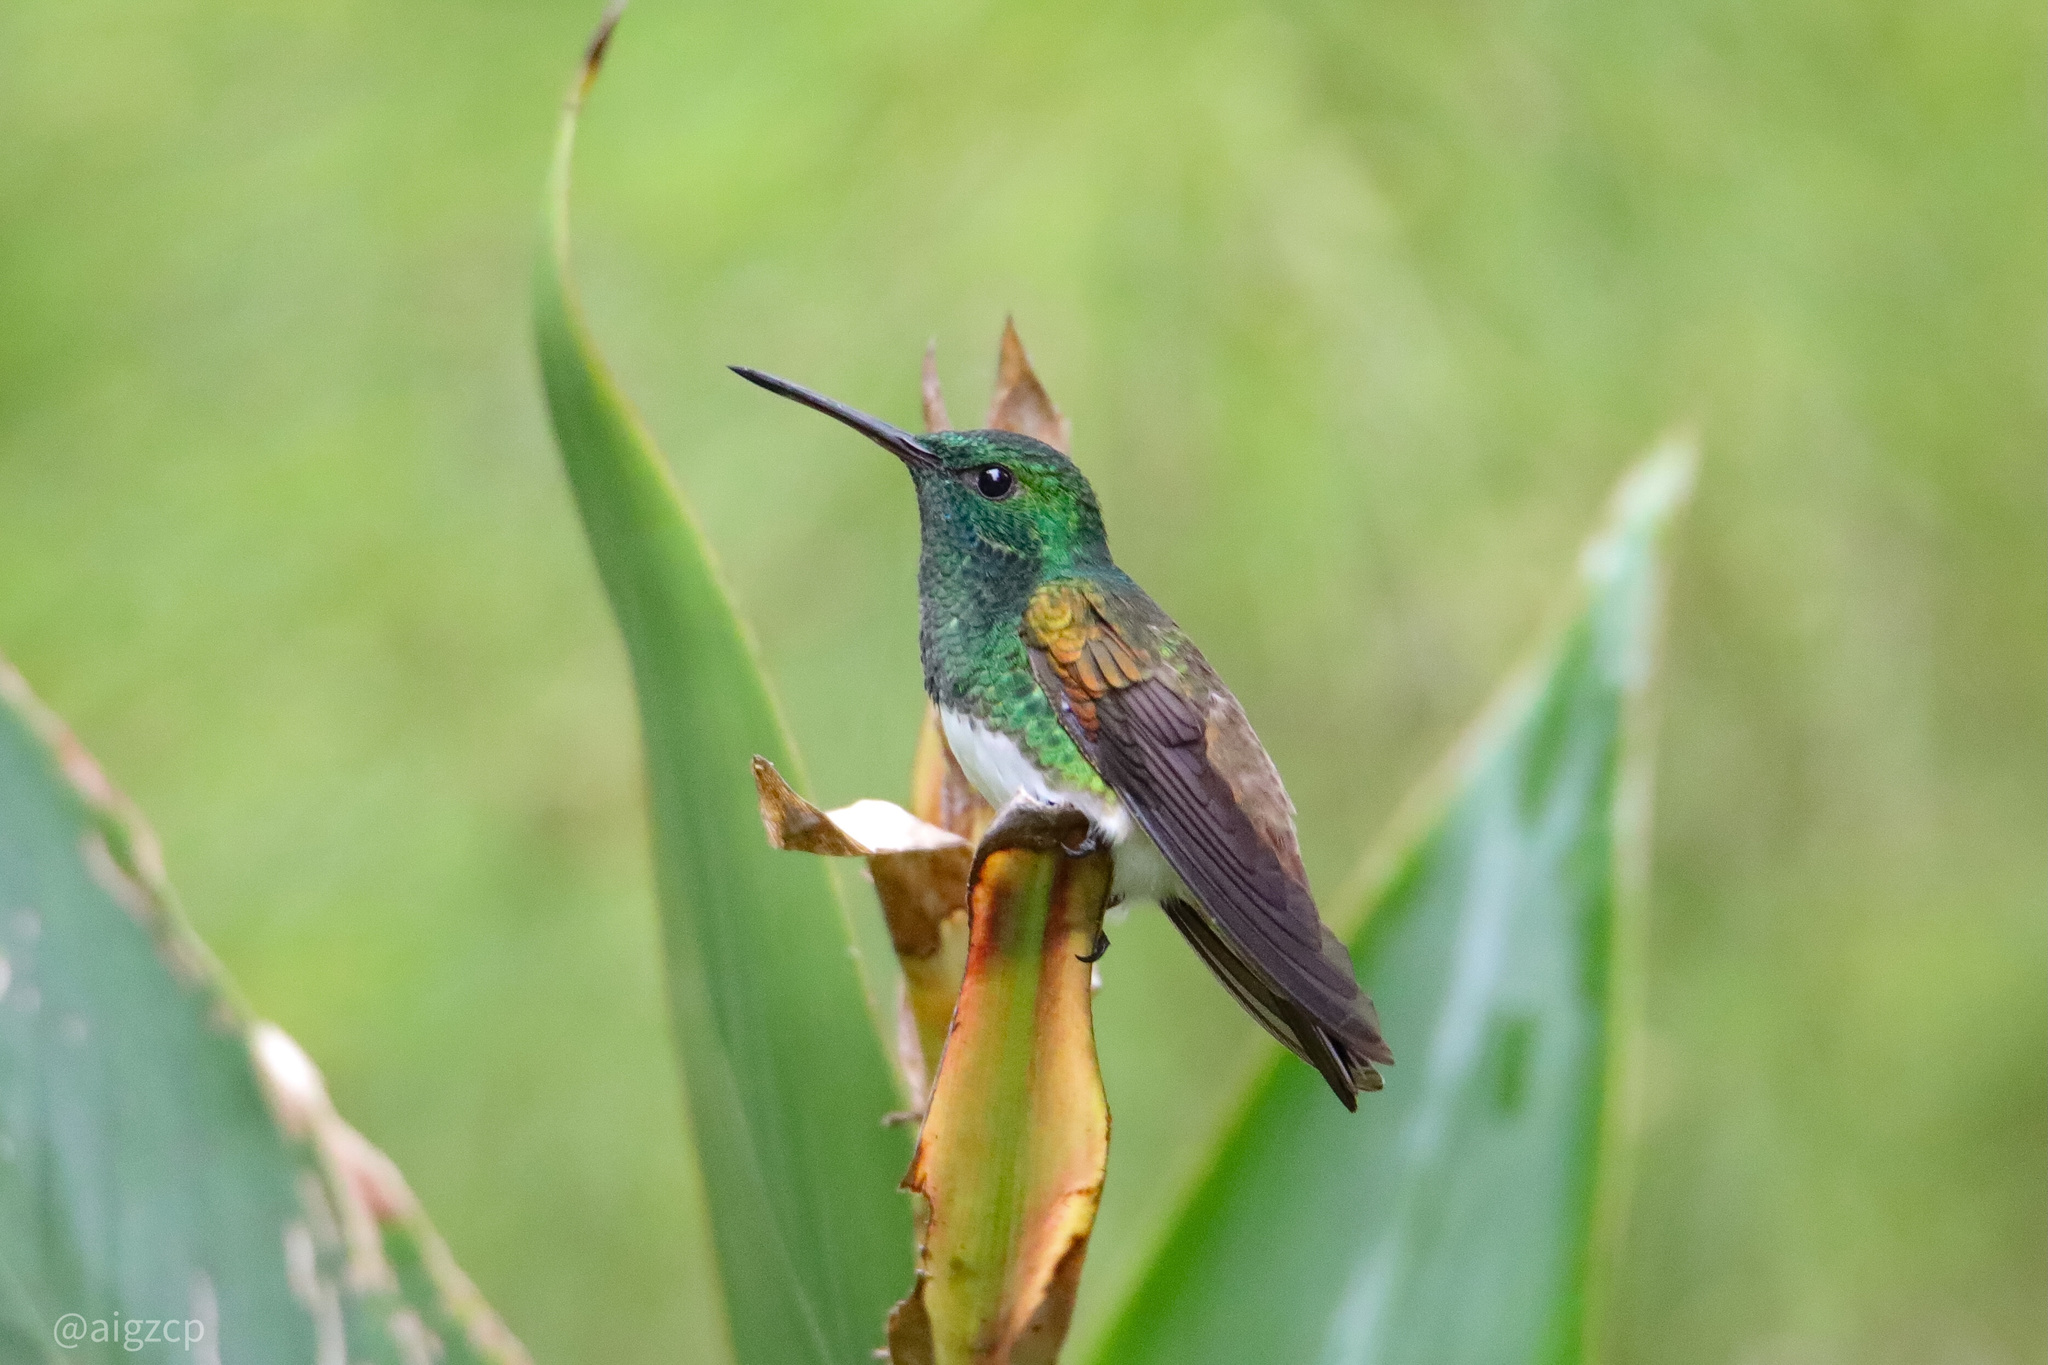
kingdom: Animalia
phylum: Chordata
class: Aves
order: Apodiformes
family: Trochilidae
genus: Saucerottia
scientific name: Saucerottia edward
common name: Snowy-bellied hummingbird
